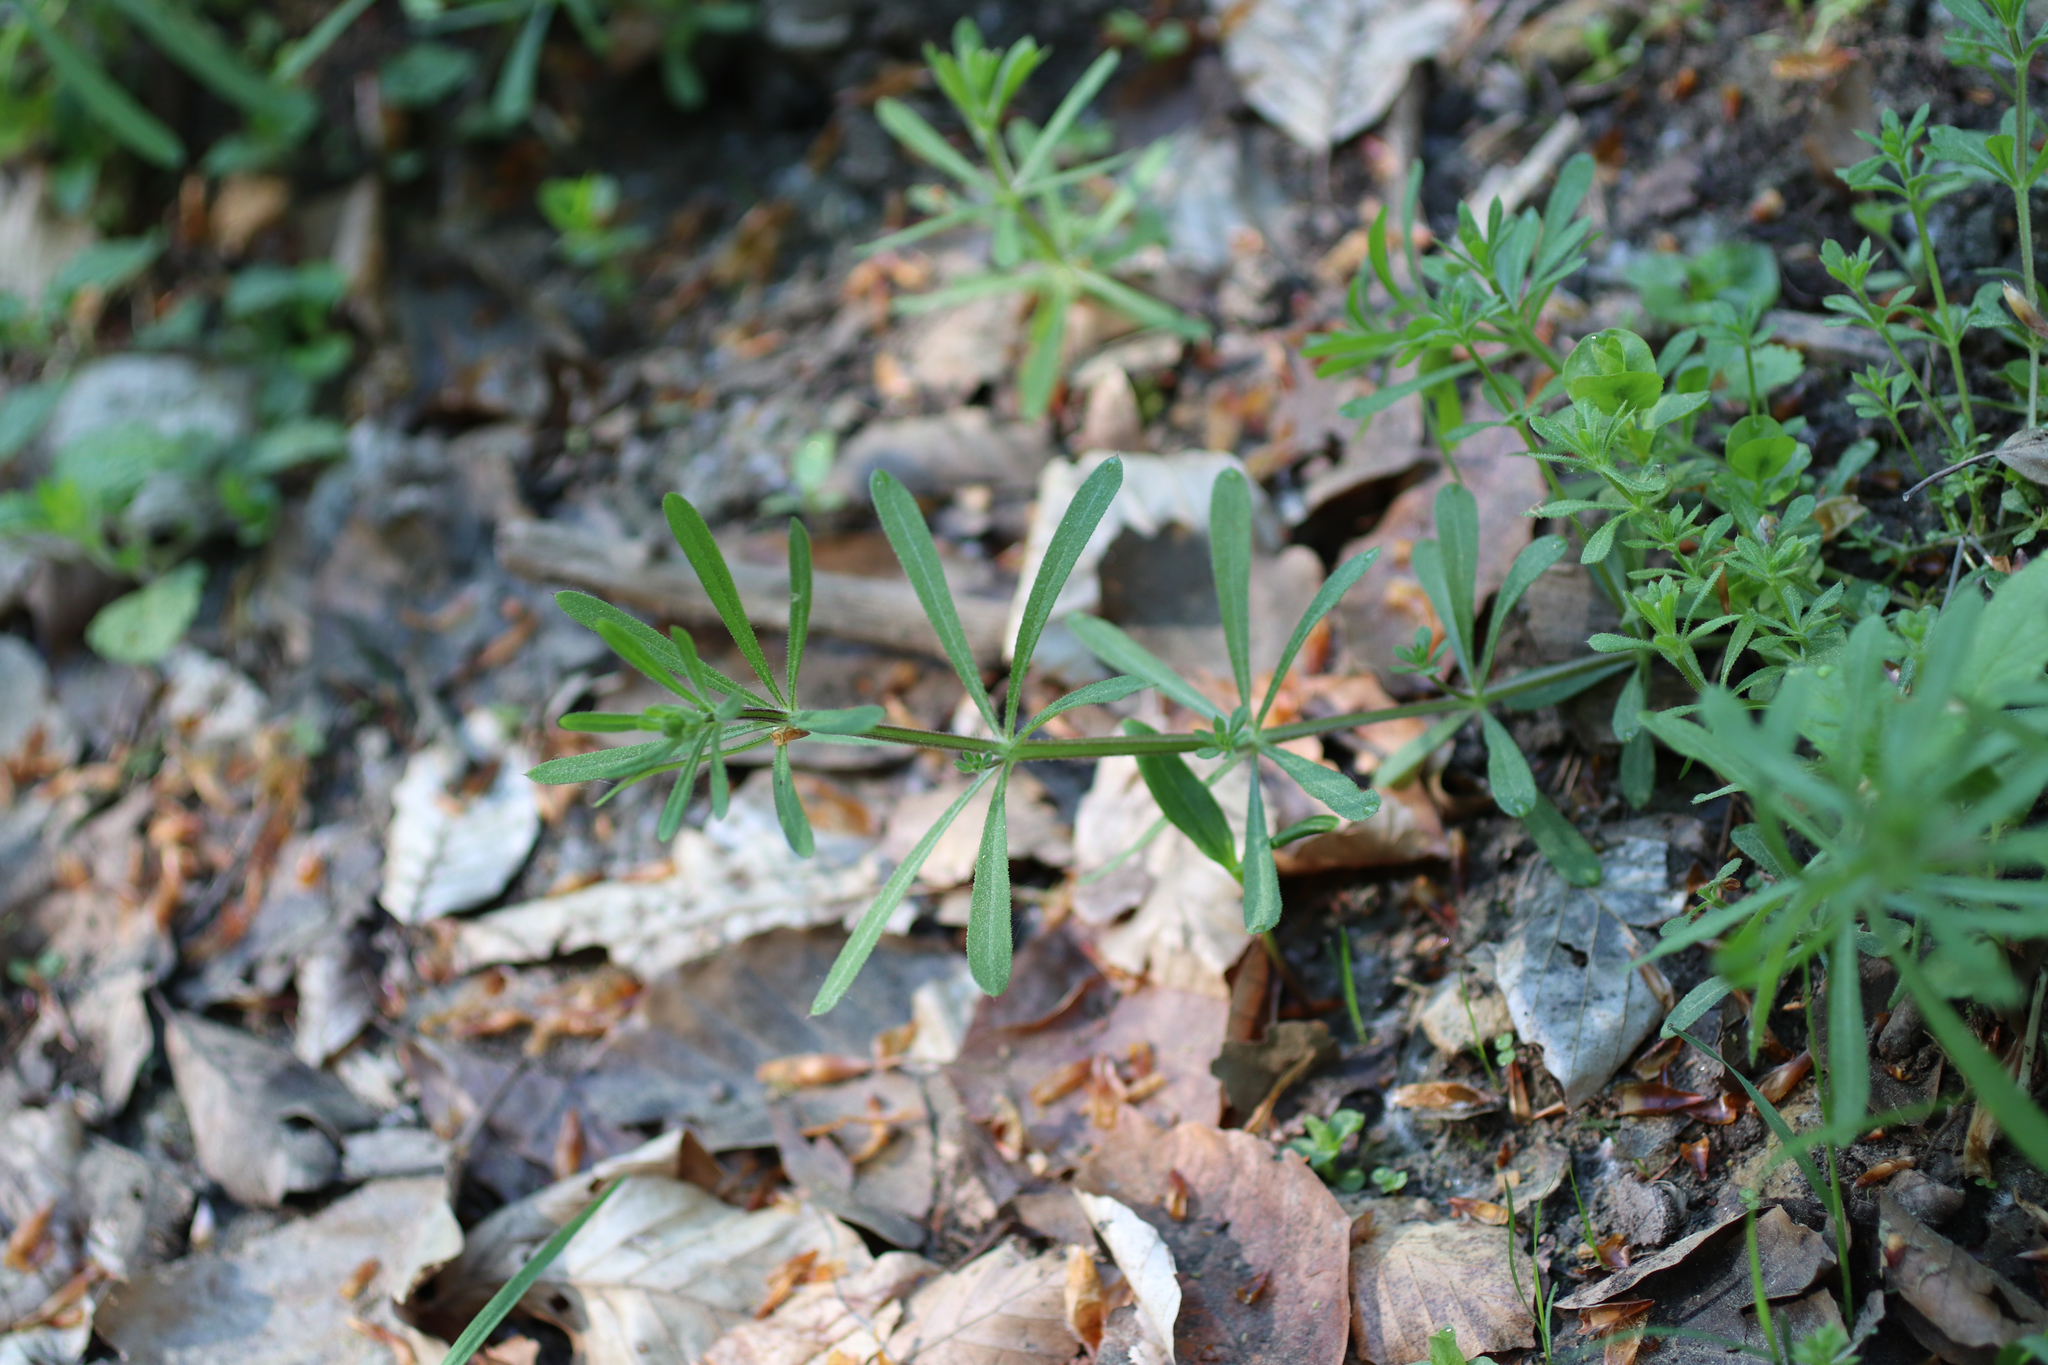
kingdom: Plantae
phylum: Tracheophyta
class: Magnoliopsida
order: Gentianales
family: Rubiaceae
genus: Galium
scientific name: Galium aparine
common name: Cleavers
